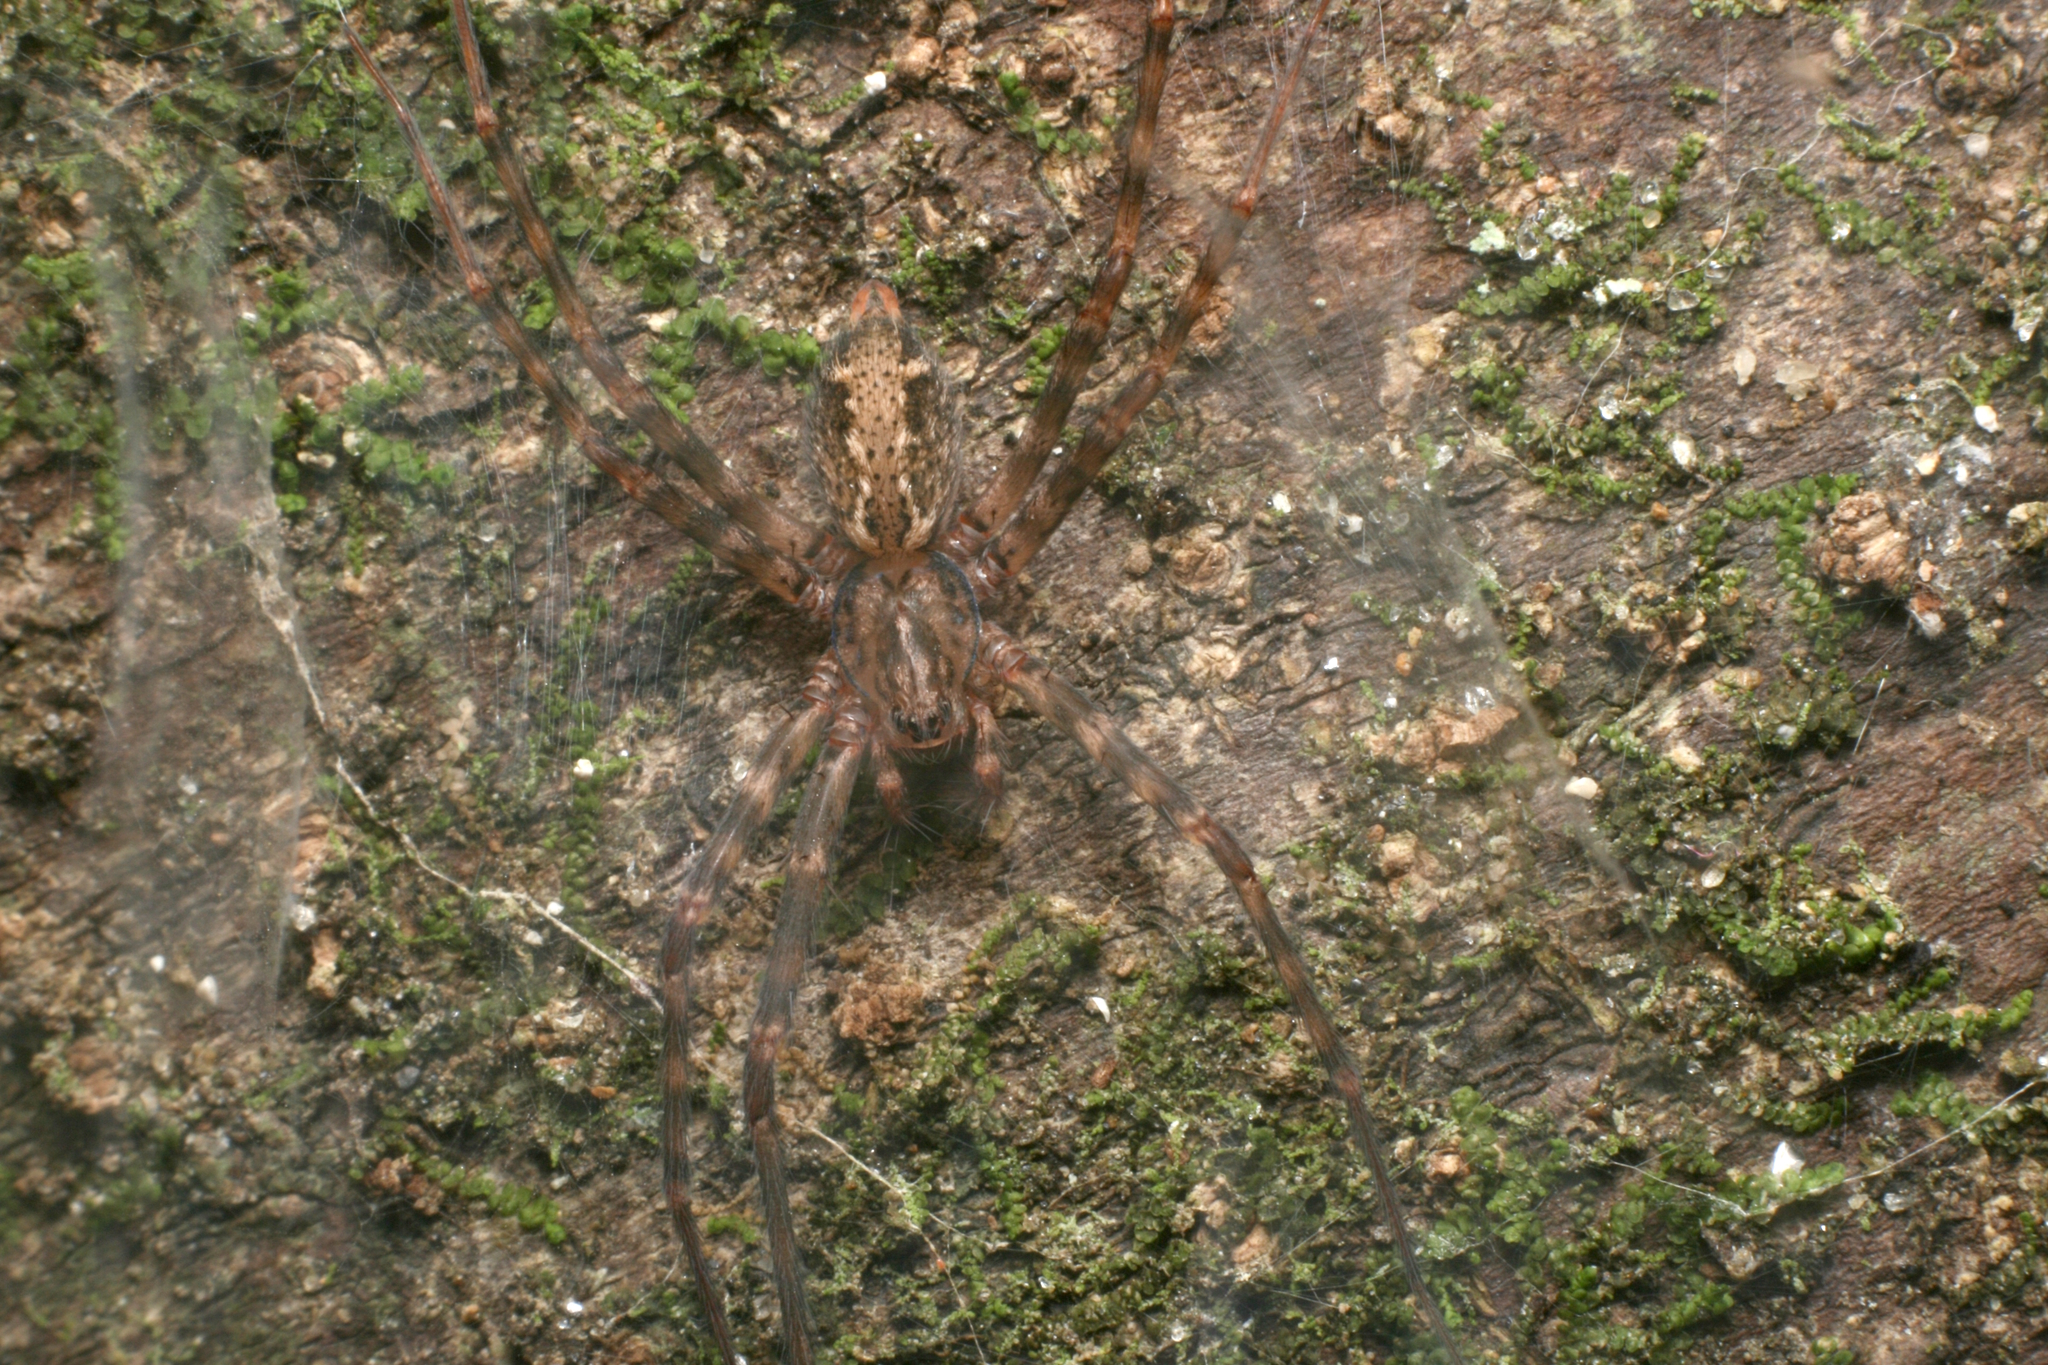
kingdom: Animalia
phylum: Arthropoda
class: Arachnida
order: Araneae
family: Stiphidiidae
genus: Stiphidion
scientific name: Stiphidion facetum
